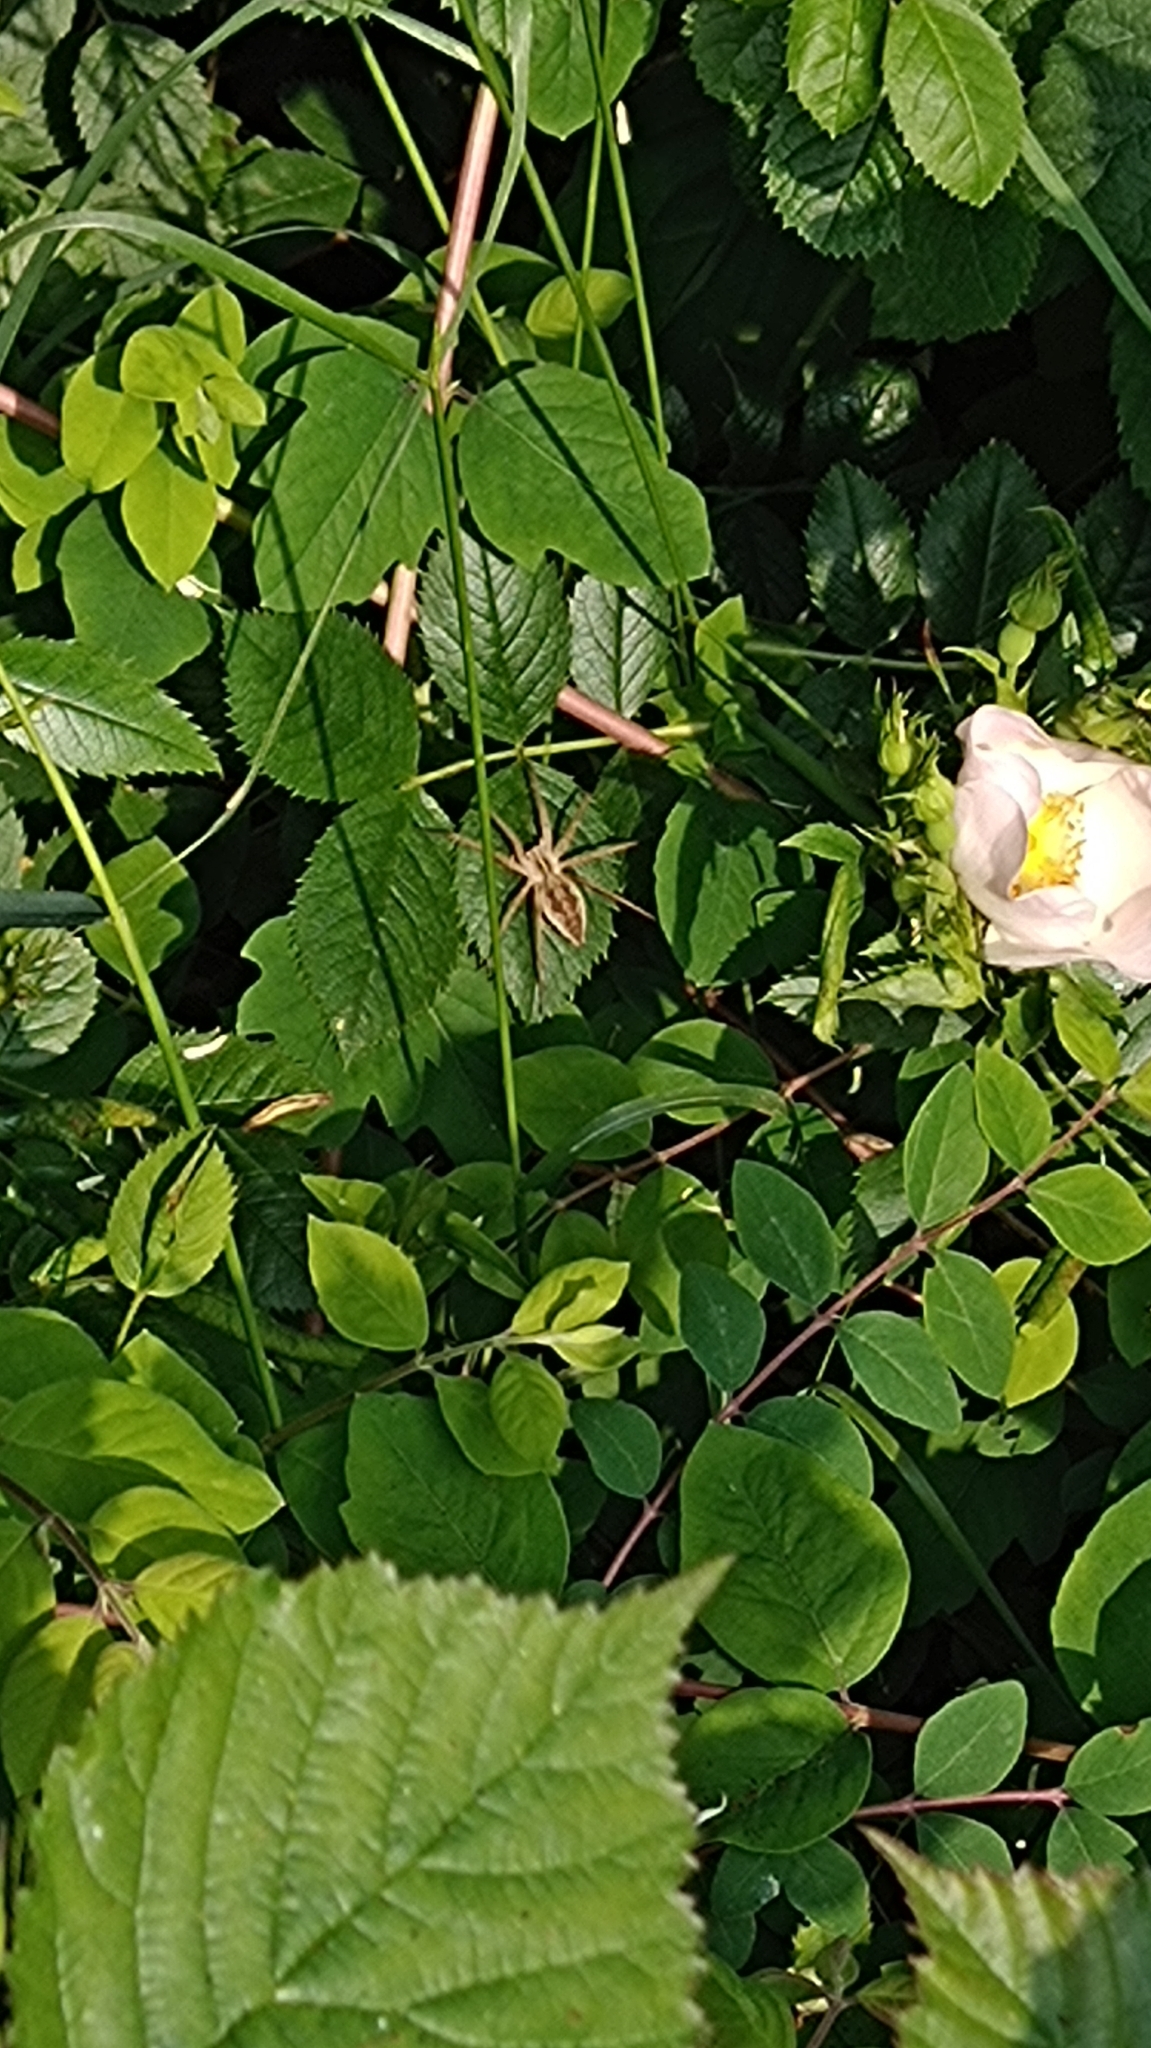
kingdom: Animalia
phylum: Arthropoda
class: Arachnida
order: Araneae
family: Pisauridae
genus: Pisaura
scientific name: Pisaura mirabilis
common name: Tent spider
